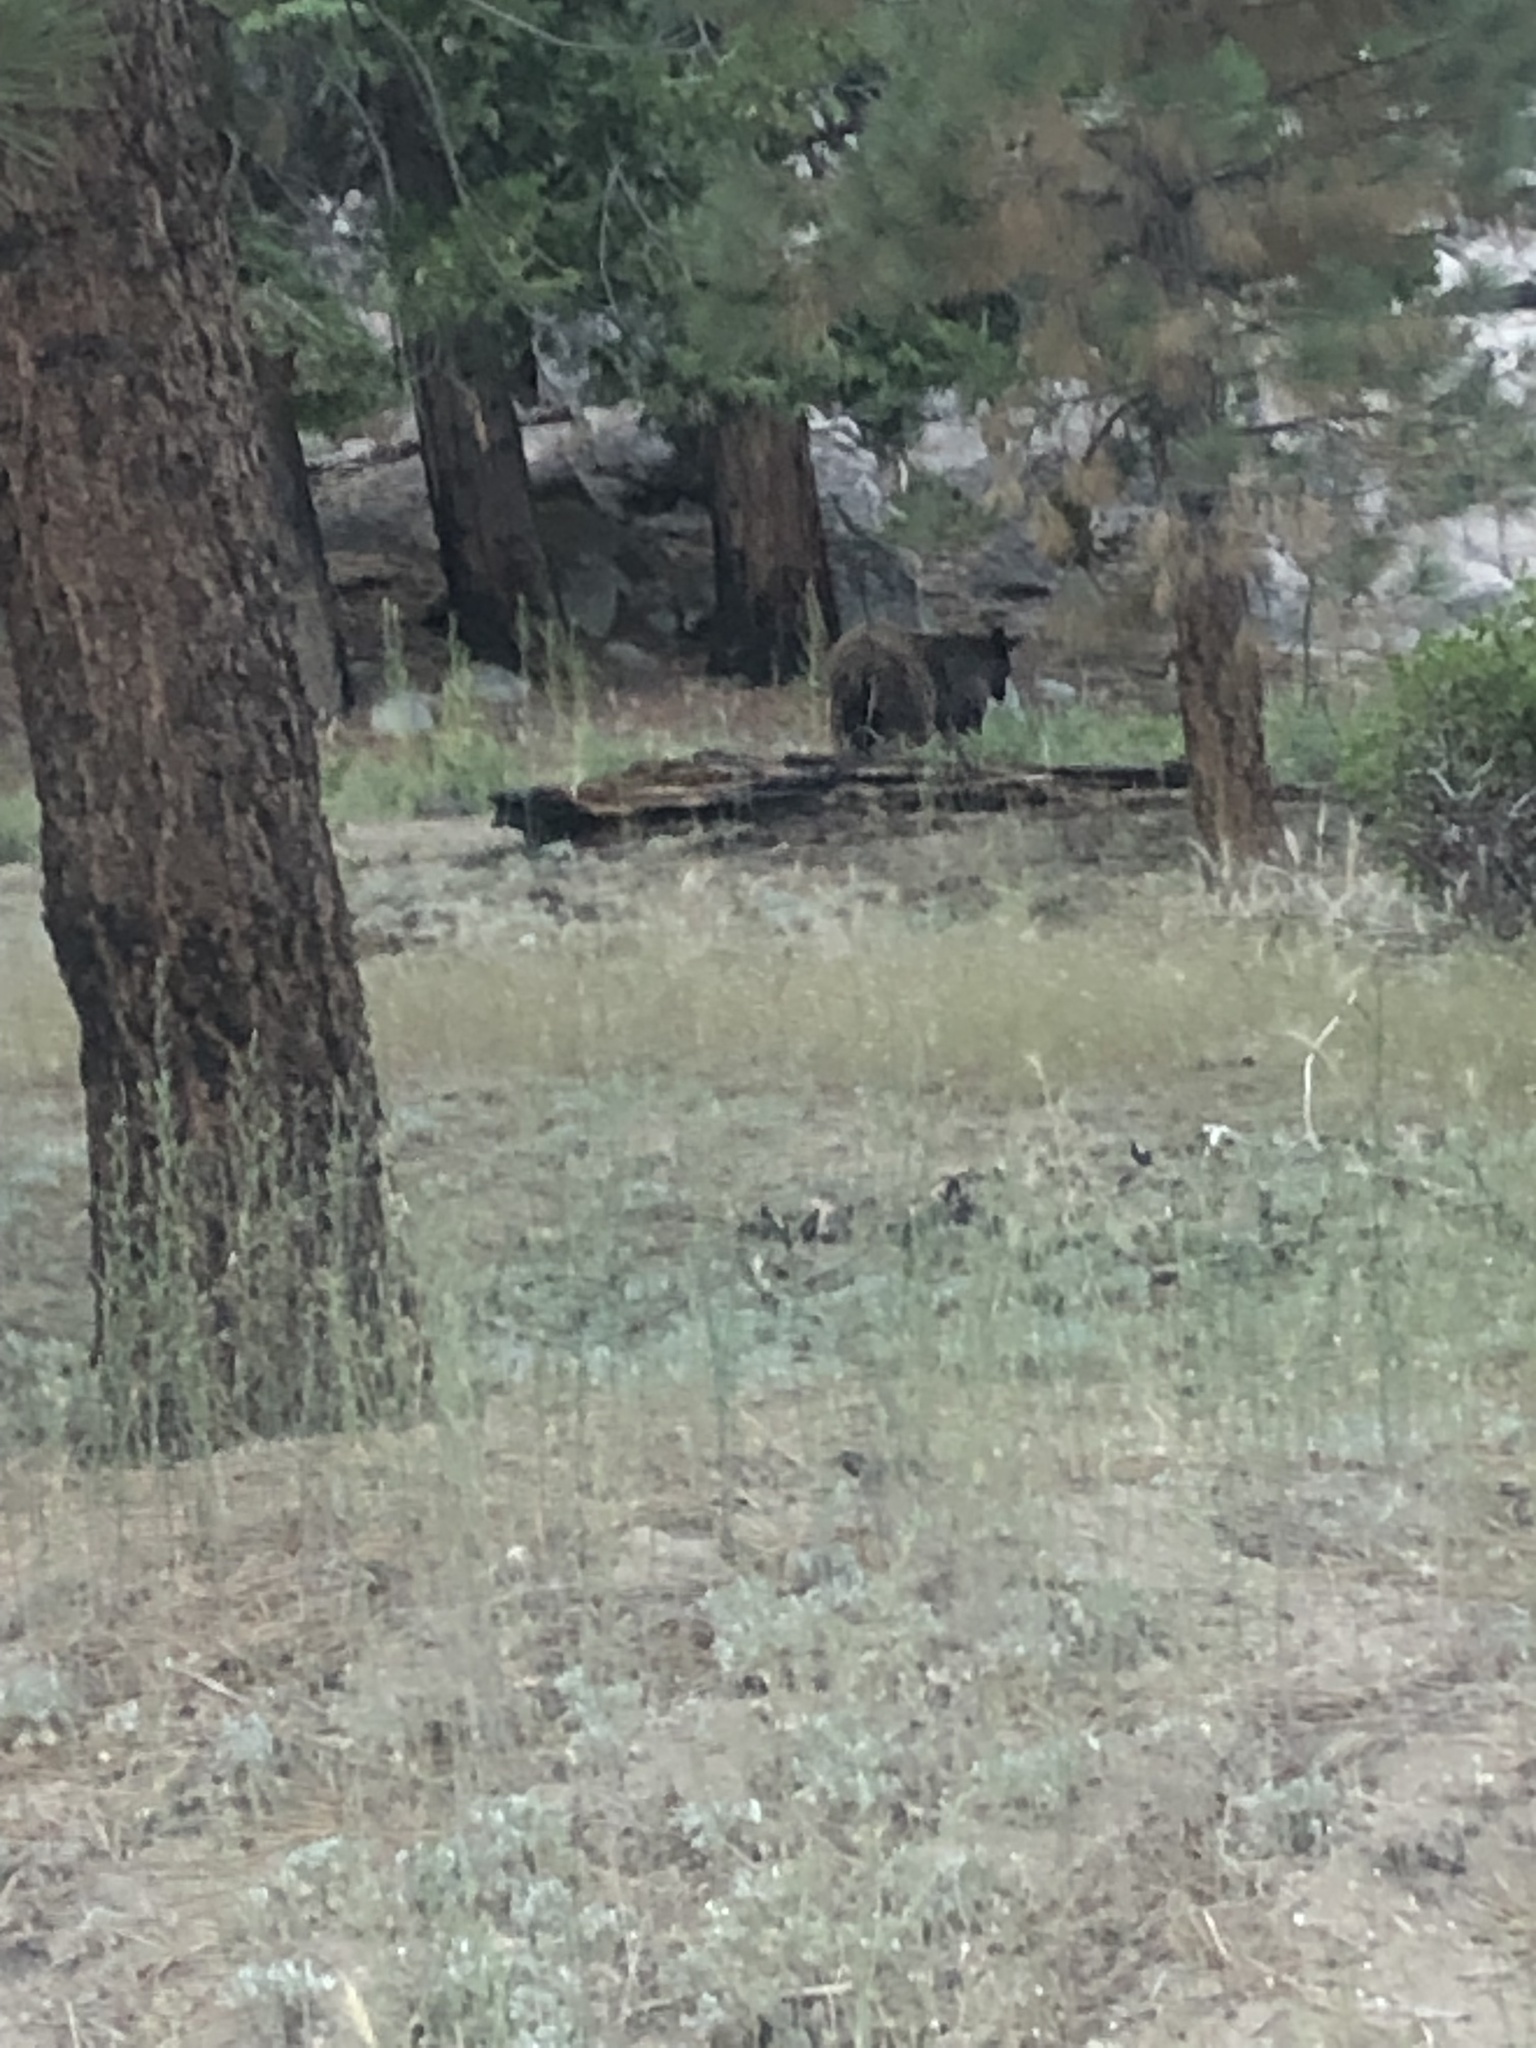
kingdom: Animalia
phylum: Chordata
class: Mammalia
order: Carnivora
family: Ursidae
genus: Ursus
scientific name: Ursus americanus
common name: American black bear
